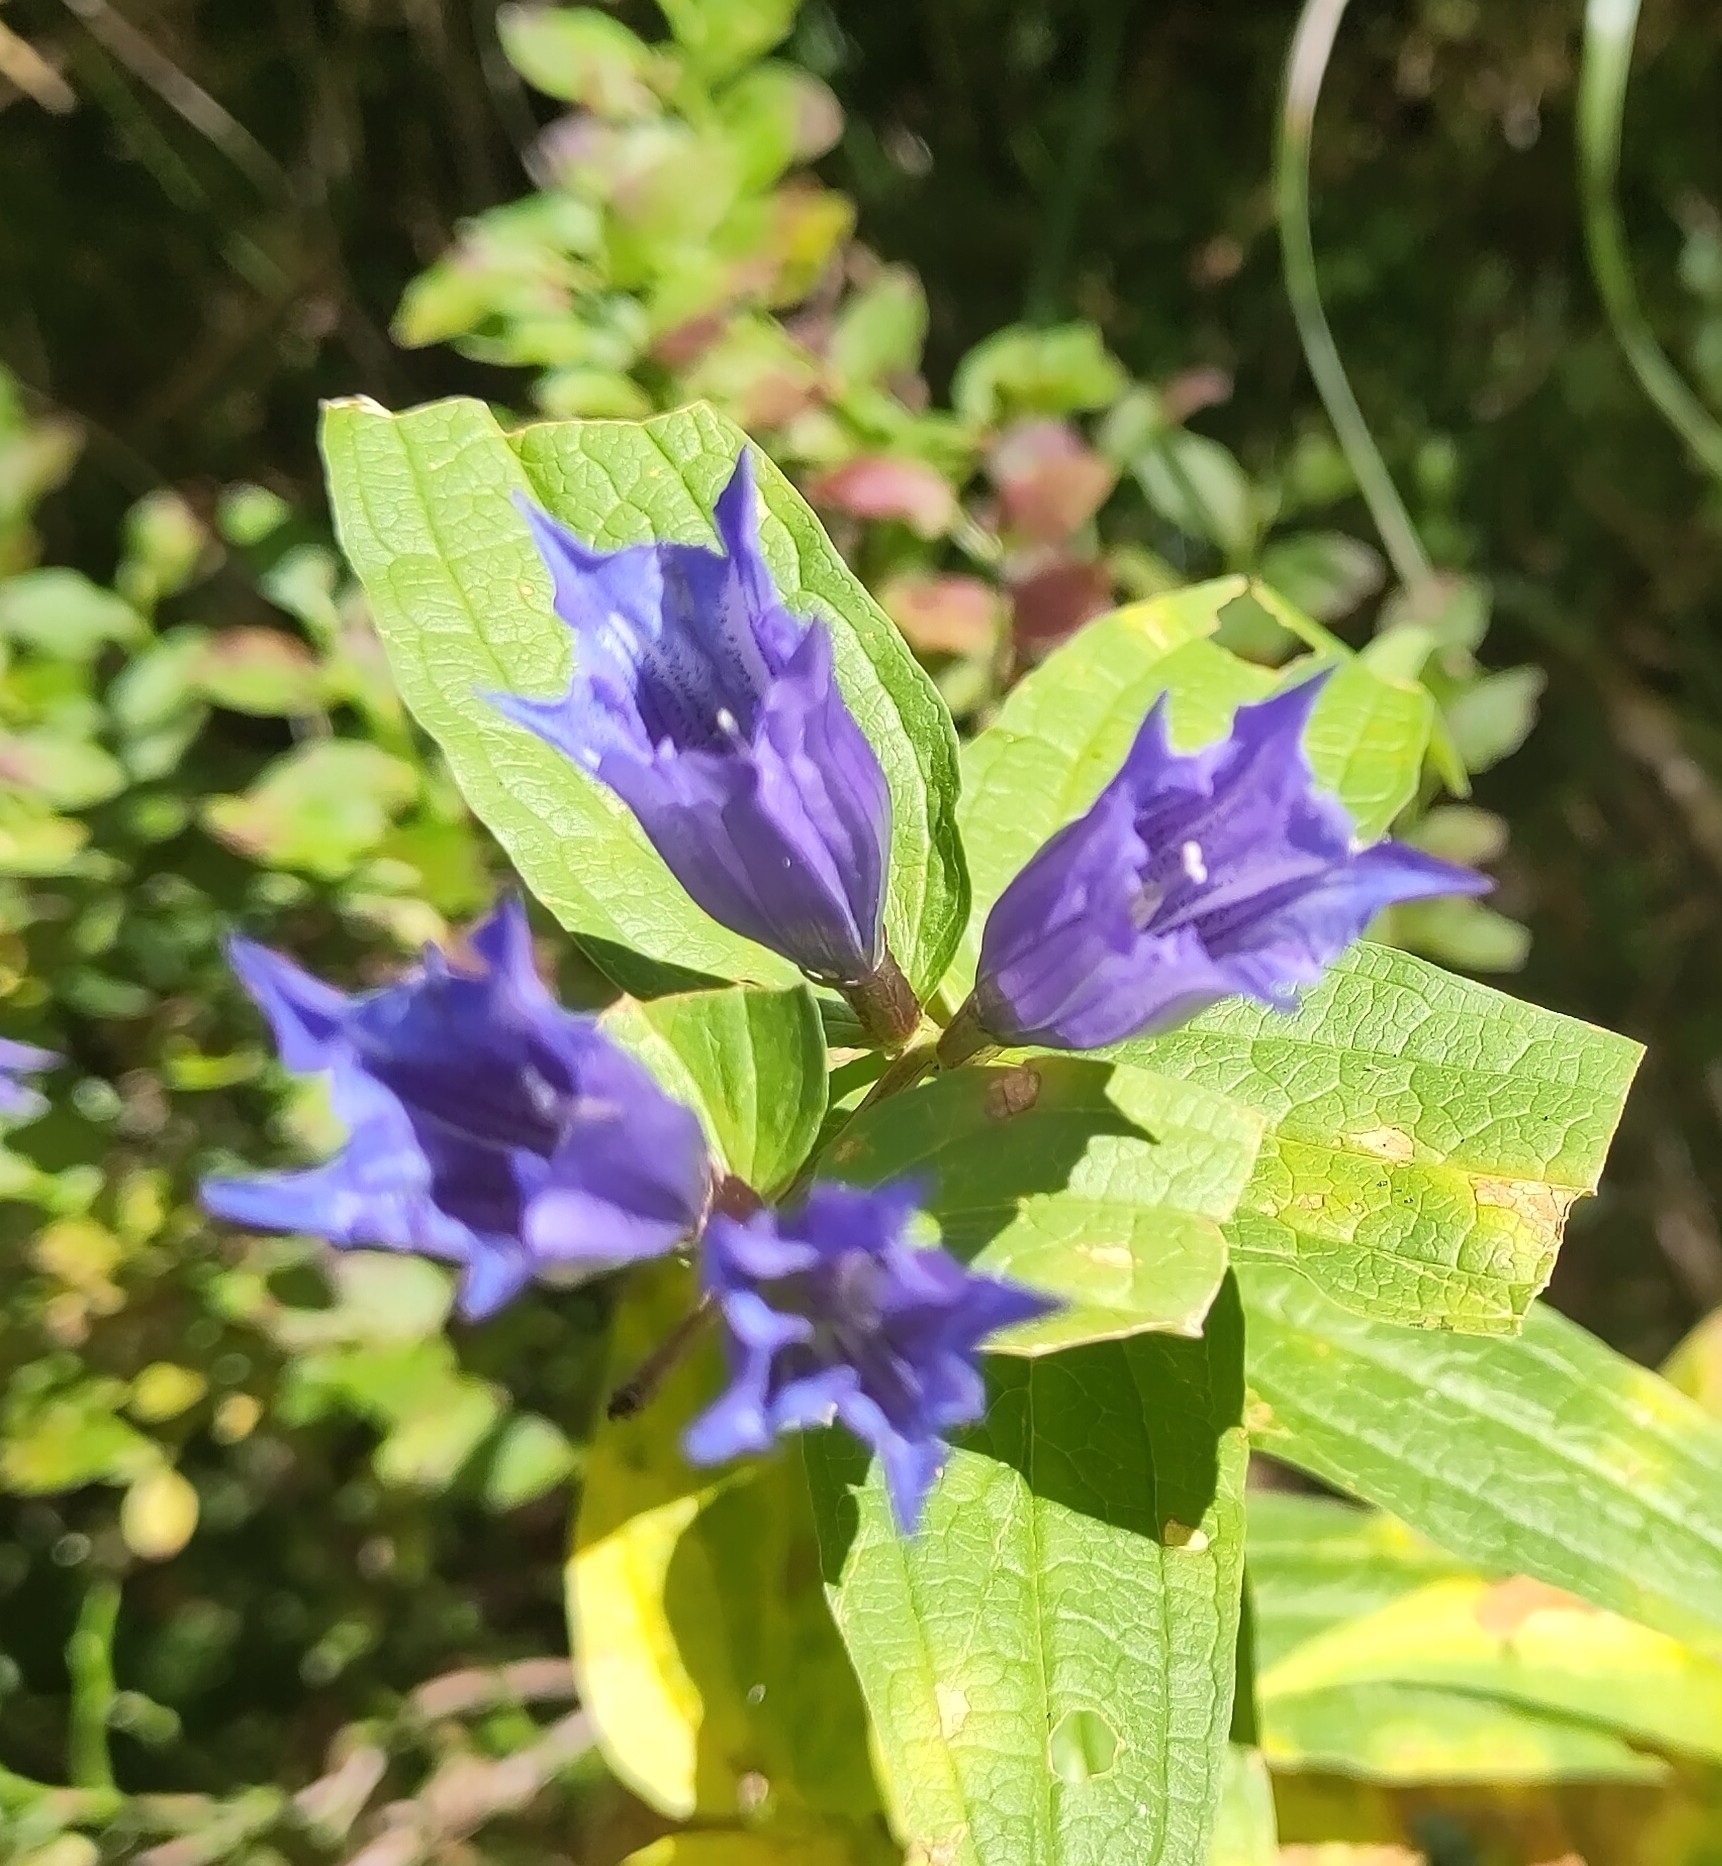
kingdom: Plantae
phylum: Tracheophyta
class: Magnoliopsida
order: Gentianales
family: Gentianaceae
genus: Gentiana
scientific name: Gentiana asclepiadea
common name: Willow gentian
